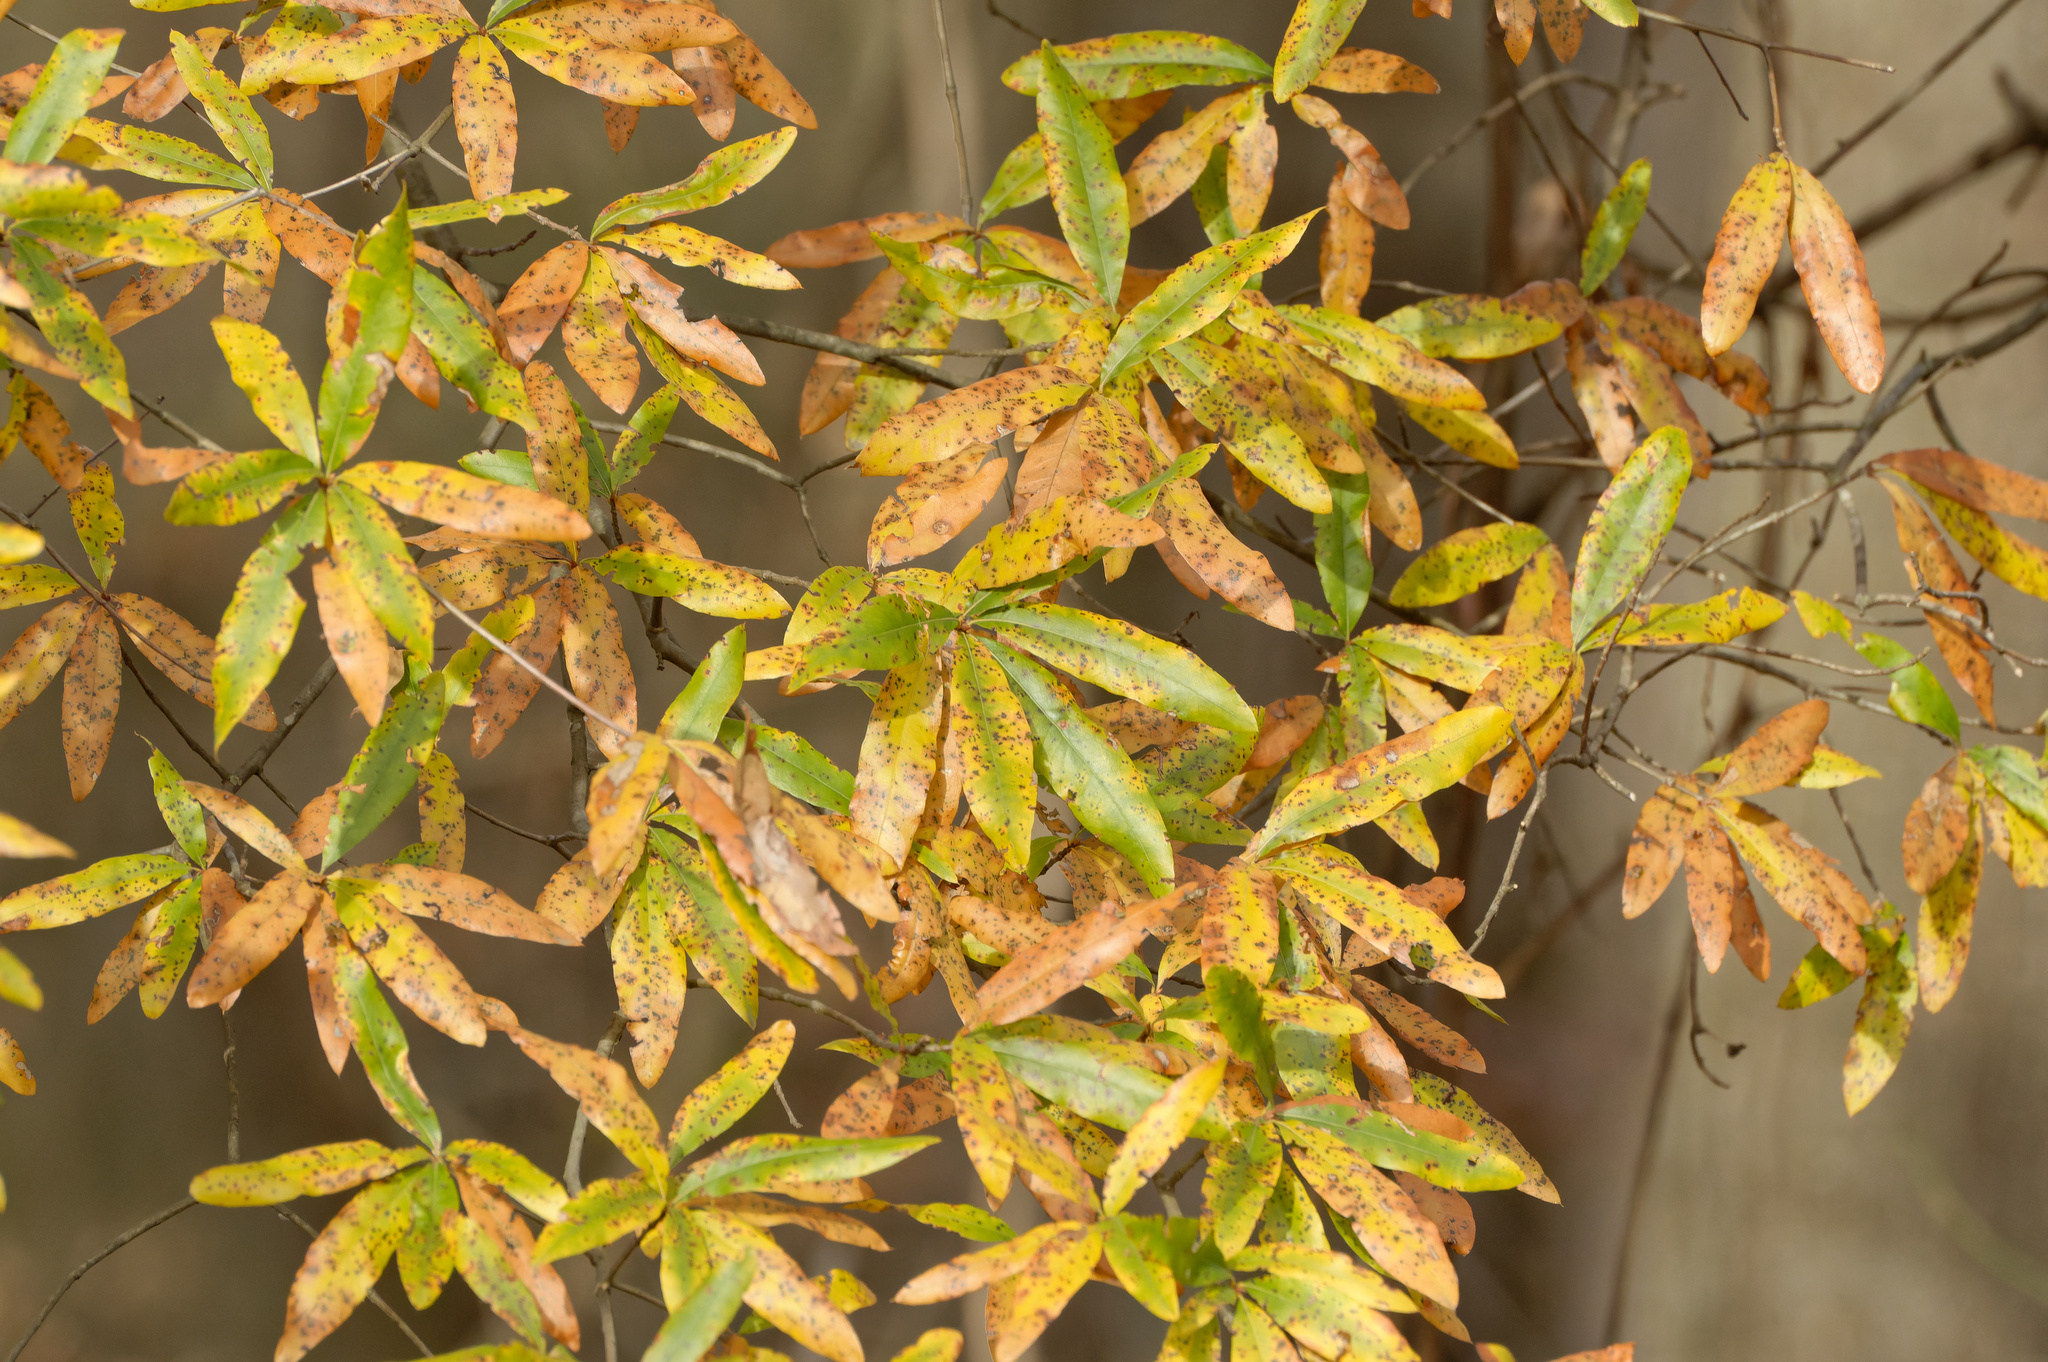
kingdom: Plantae
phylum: Tracheophyta
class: Magnoliopsida
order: Fagales
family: Fagaceae
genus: Quercus
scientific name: Quercus phellos
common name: Willow oak
